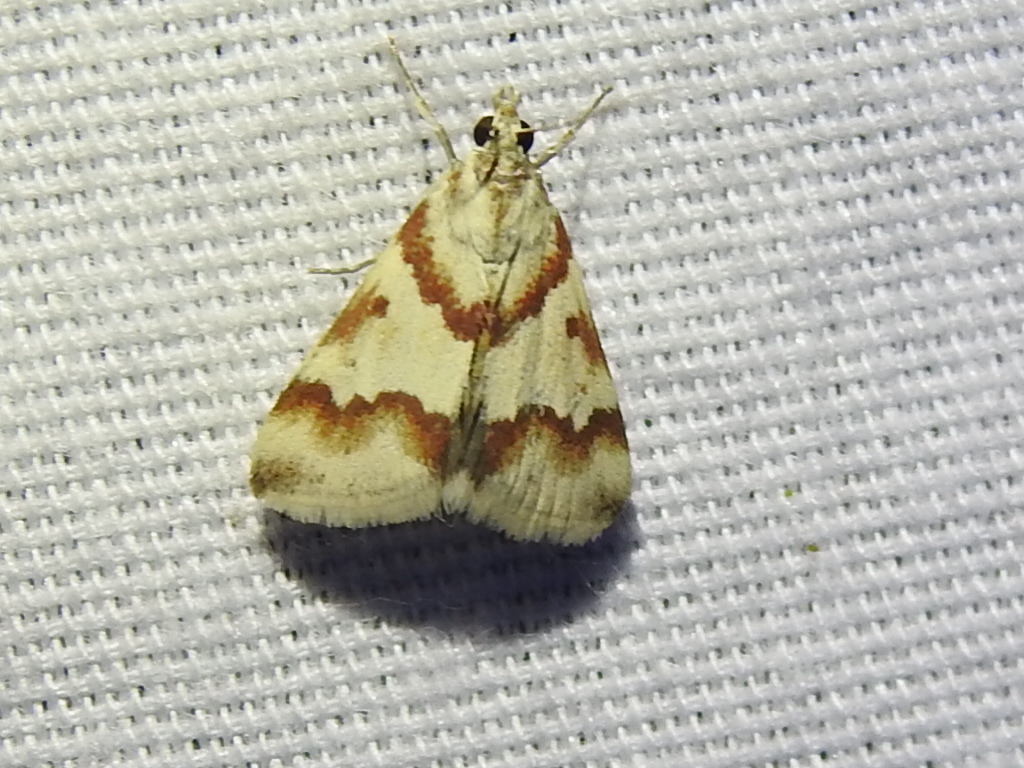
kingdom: Animalia
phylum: Arthropoda
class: Insecta
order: Lepidoptera
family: Crambidae
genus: Noctuelia
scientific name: Noctuelia Mimoschinia rufofascialis
